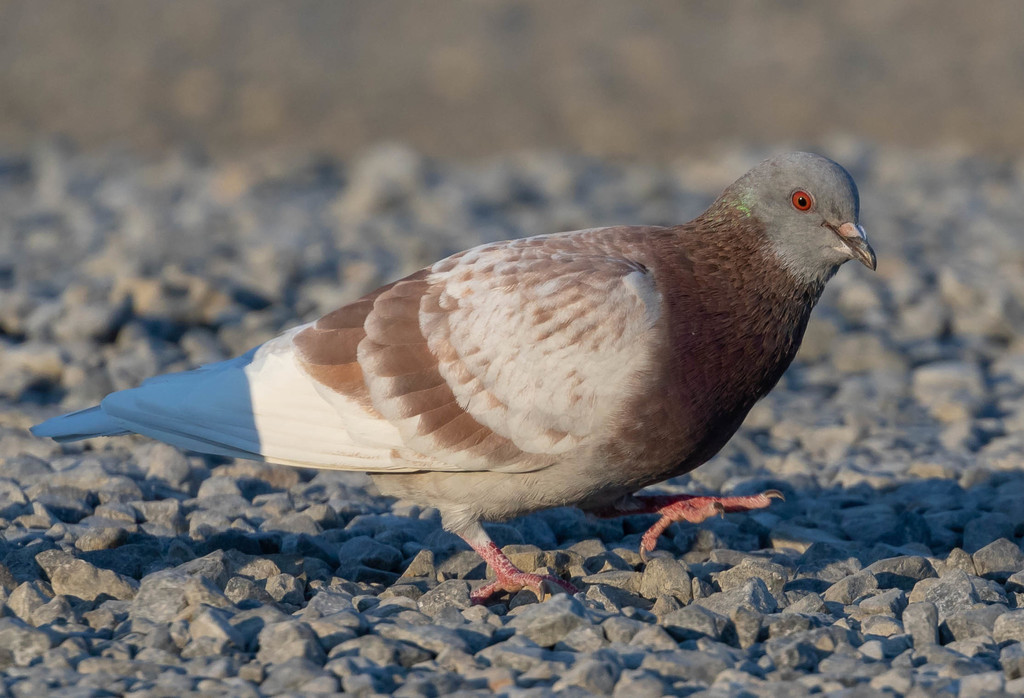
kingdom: Animalia
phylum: Chordata
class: Aves
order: Columbiformes
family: Columbidae
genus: Columba
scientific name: Columba livia
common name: Rock pigeon
